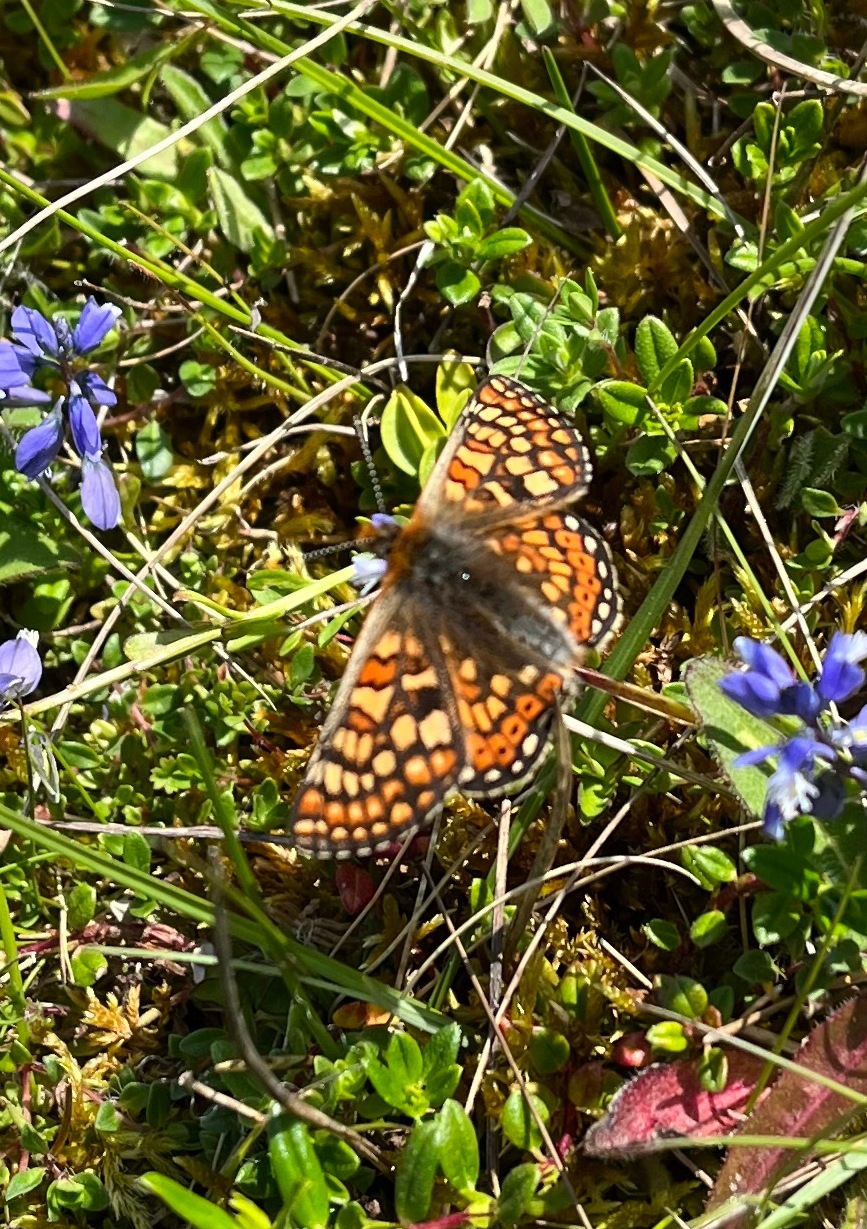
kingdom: Animalia
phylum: Arthropoda
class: Insecta
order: Lepidoptera
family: Nymphalidae
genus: Euphydryas
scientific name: Euphydryas aurinia
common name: Marsh fritillary
